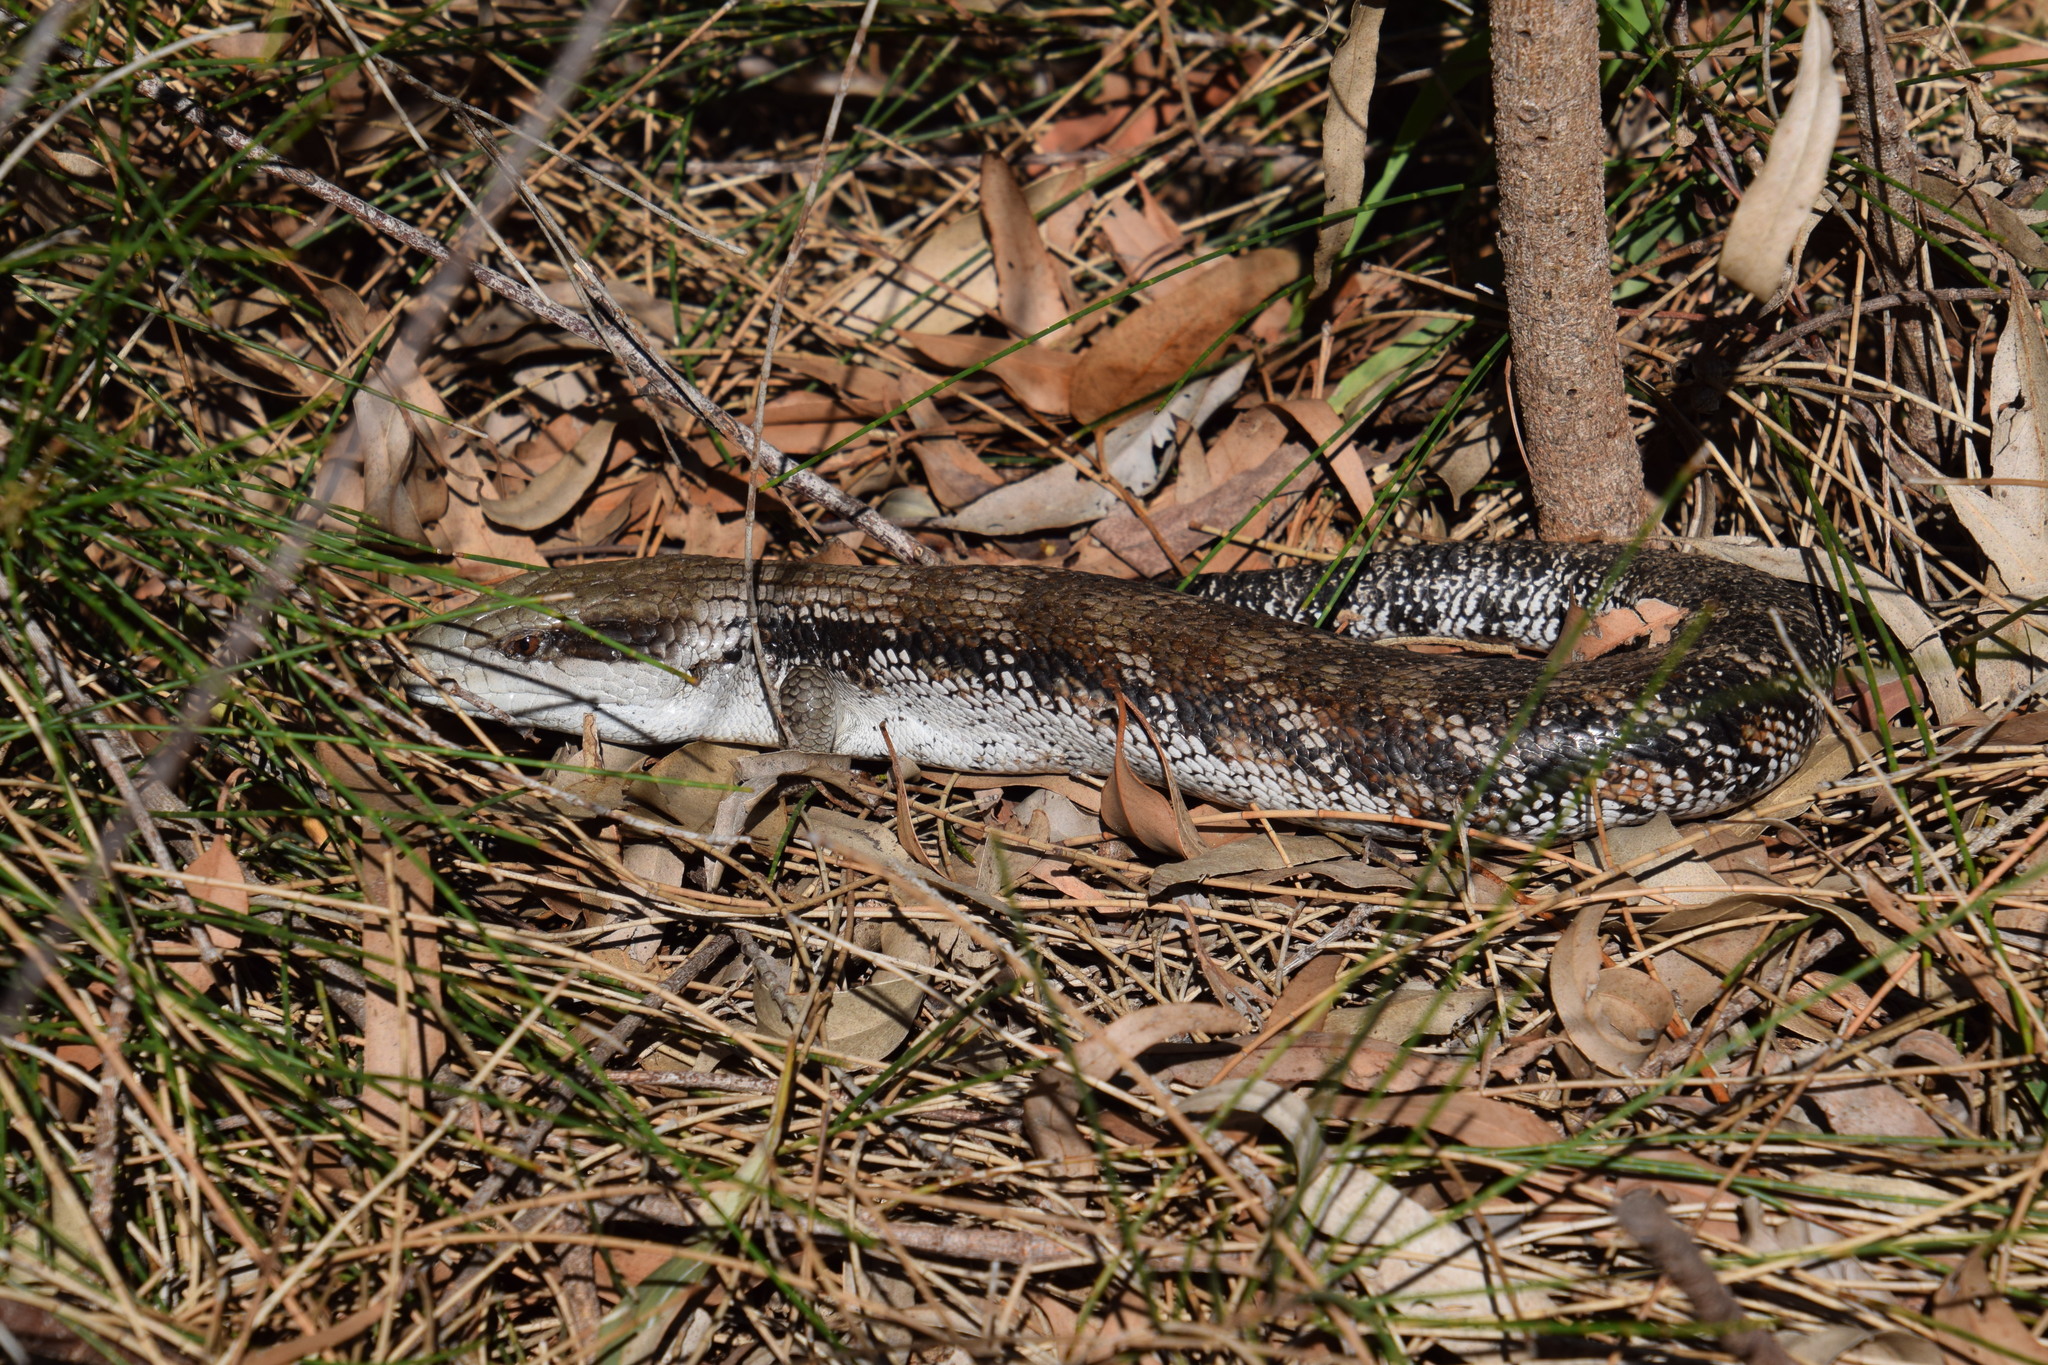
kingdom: Animalia
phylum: Chordata
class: Squamata
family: Scincidae
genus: Tiliqua
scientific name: Tiliqua scincoides
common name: Common bluetongue
